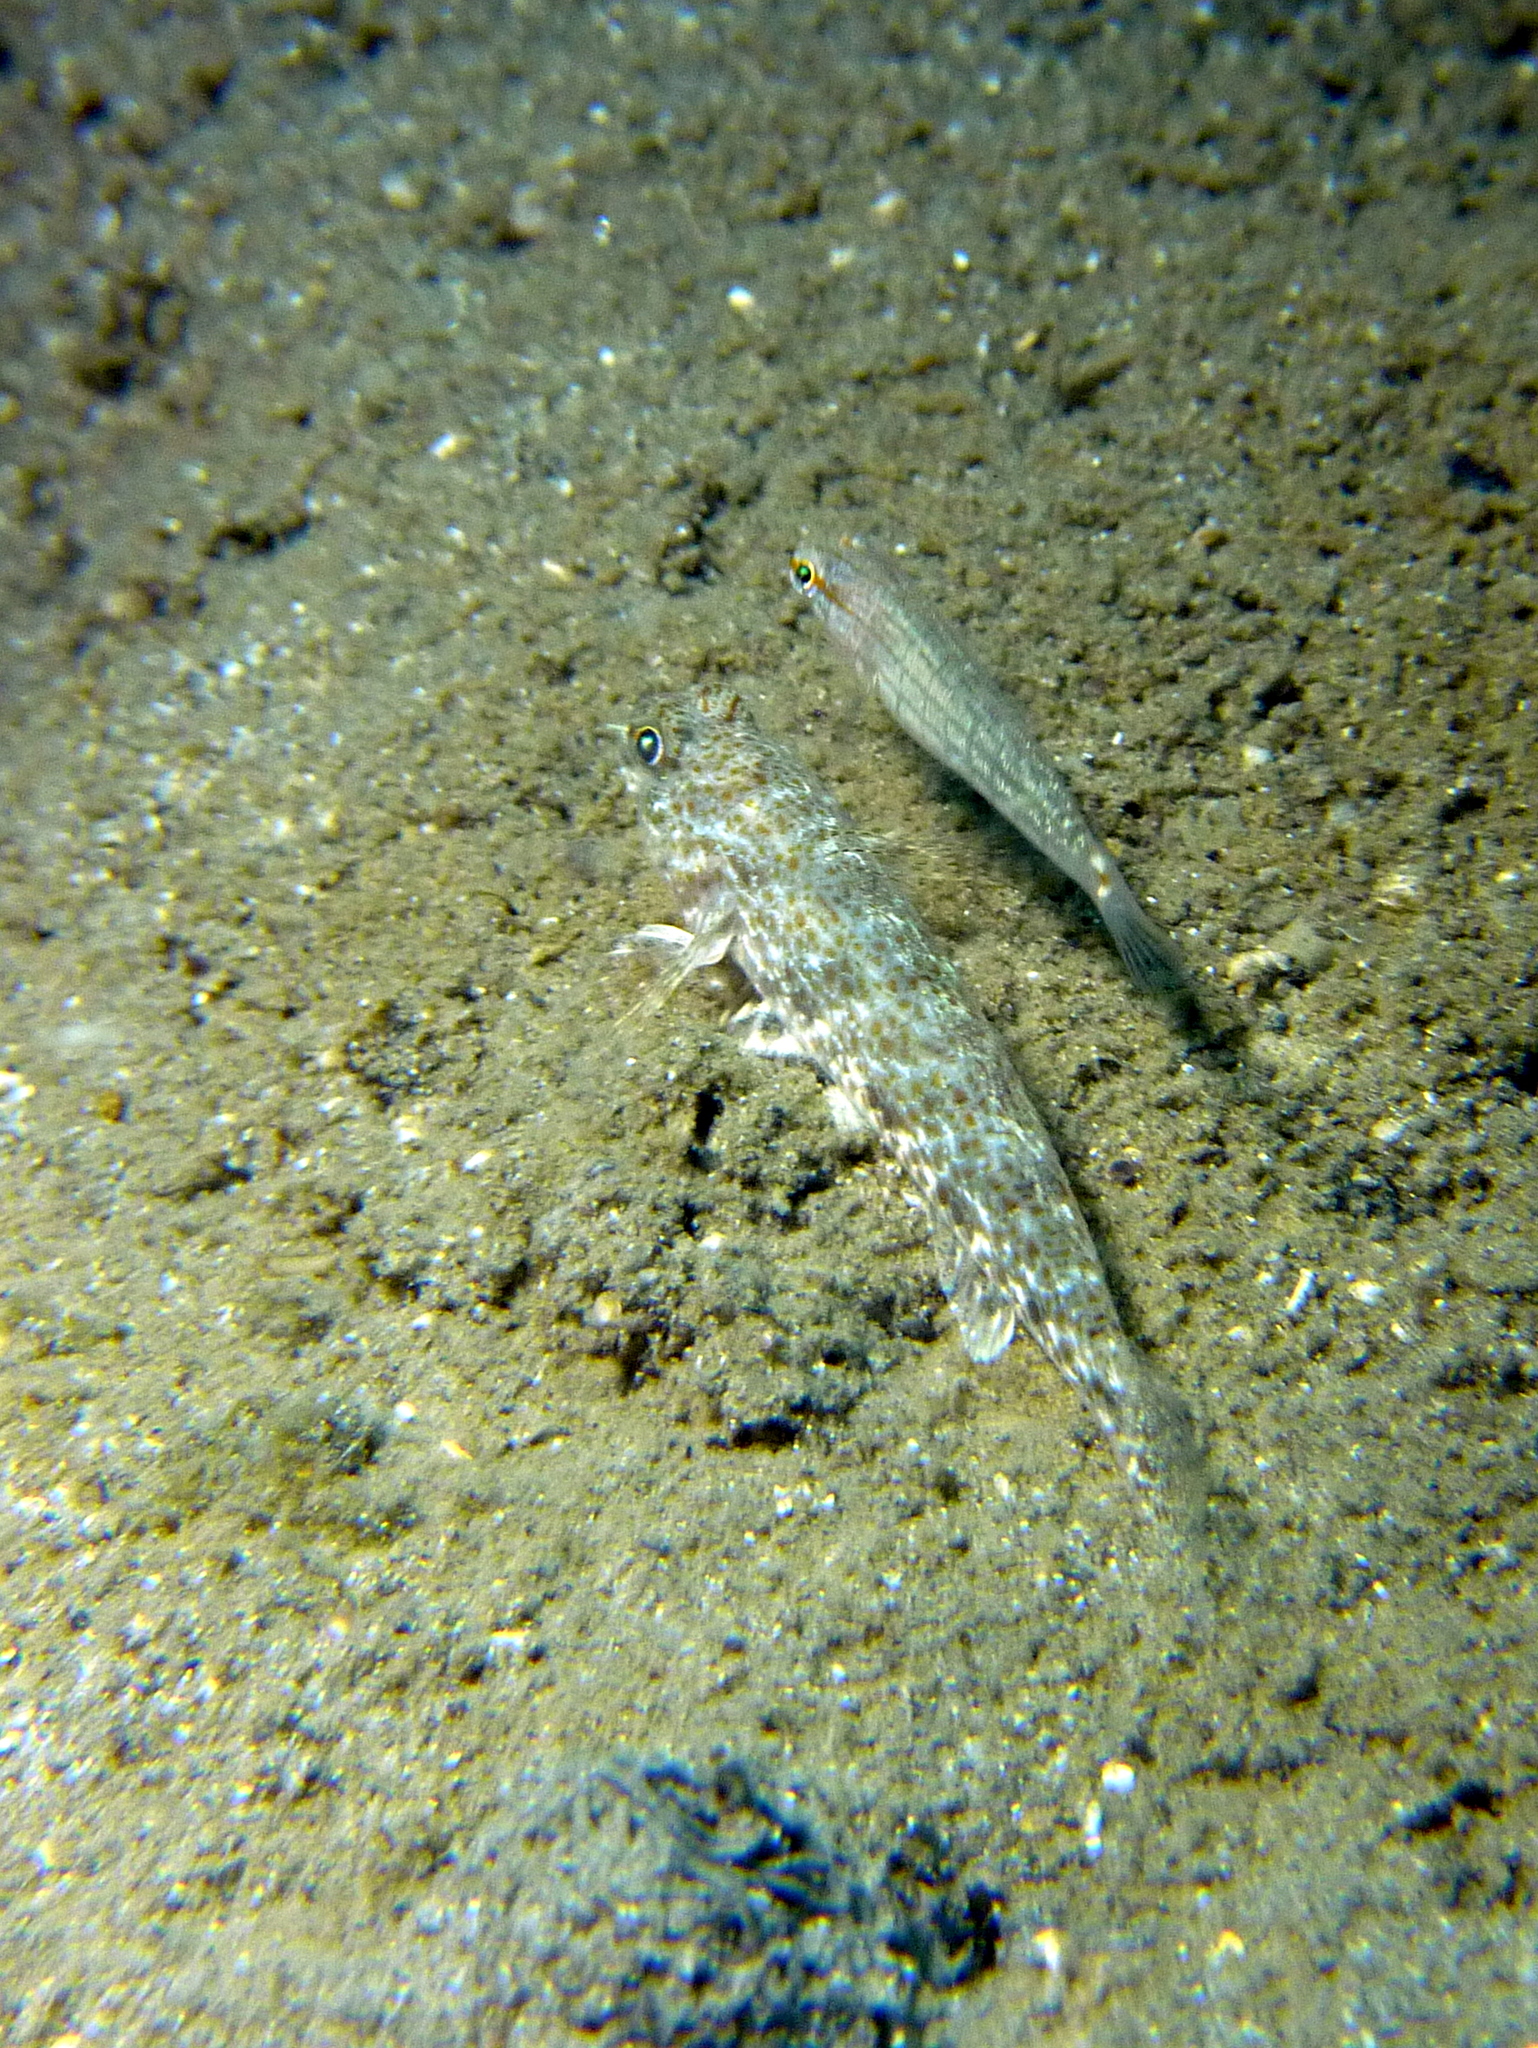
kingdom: Animalia
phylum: Chordata
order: Perciformes
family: Gobiidae
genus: Macrodontogobius
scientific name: Macrodontogobius wilburi
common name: Largetooth goby
